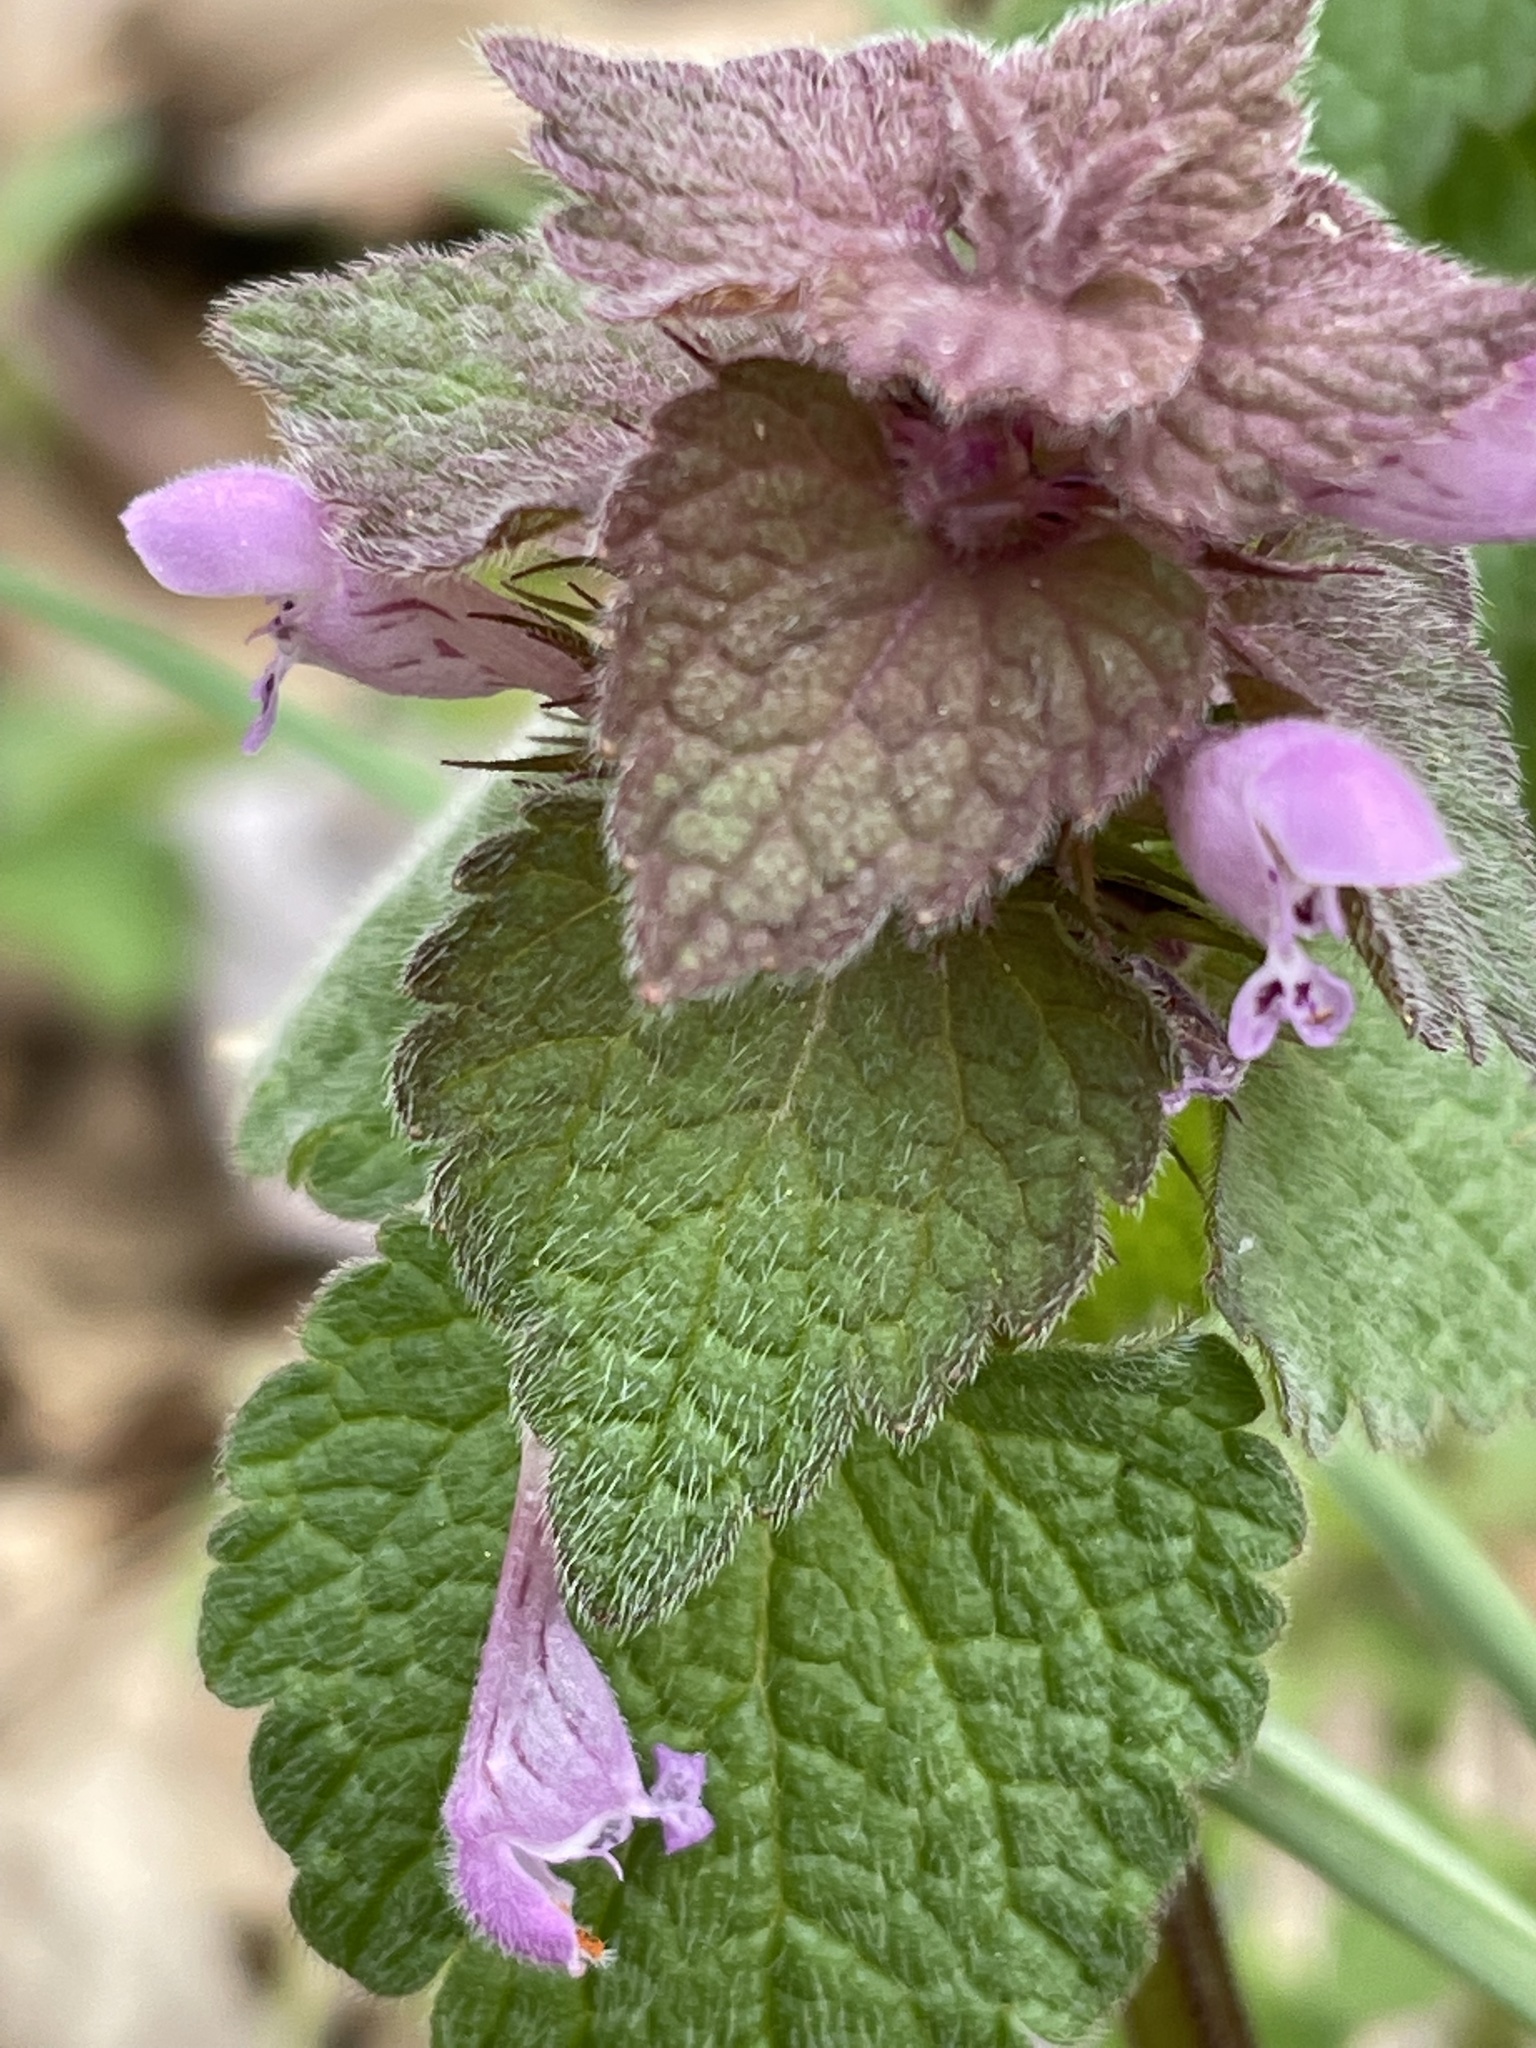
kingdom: Plantae
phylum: Tracheophyta
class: Magnoliopsida
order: Lamiales
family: Lamiaceae
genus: Lamium
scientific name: Lamium purpureum
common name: Red dead-nettle
